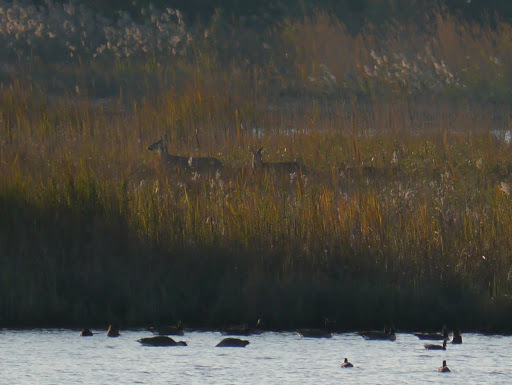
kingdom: Animalia
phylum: Chordata
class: Mammalia
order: Artiodactyla
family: Cervidae
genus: Odocoileus
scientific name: Odocoileus virginianus
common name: White-tailed deer
